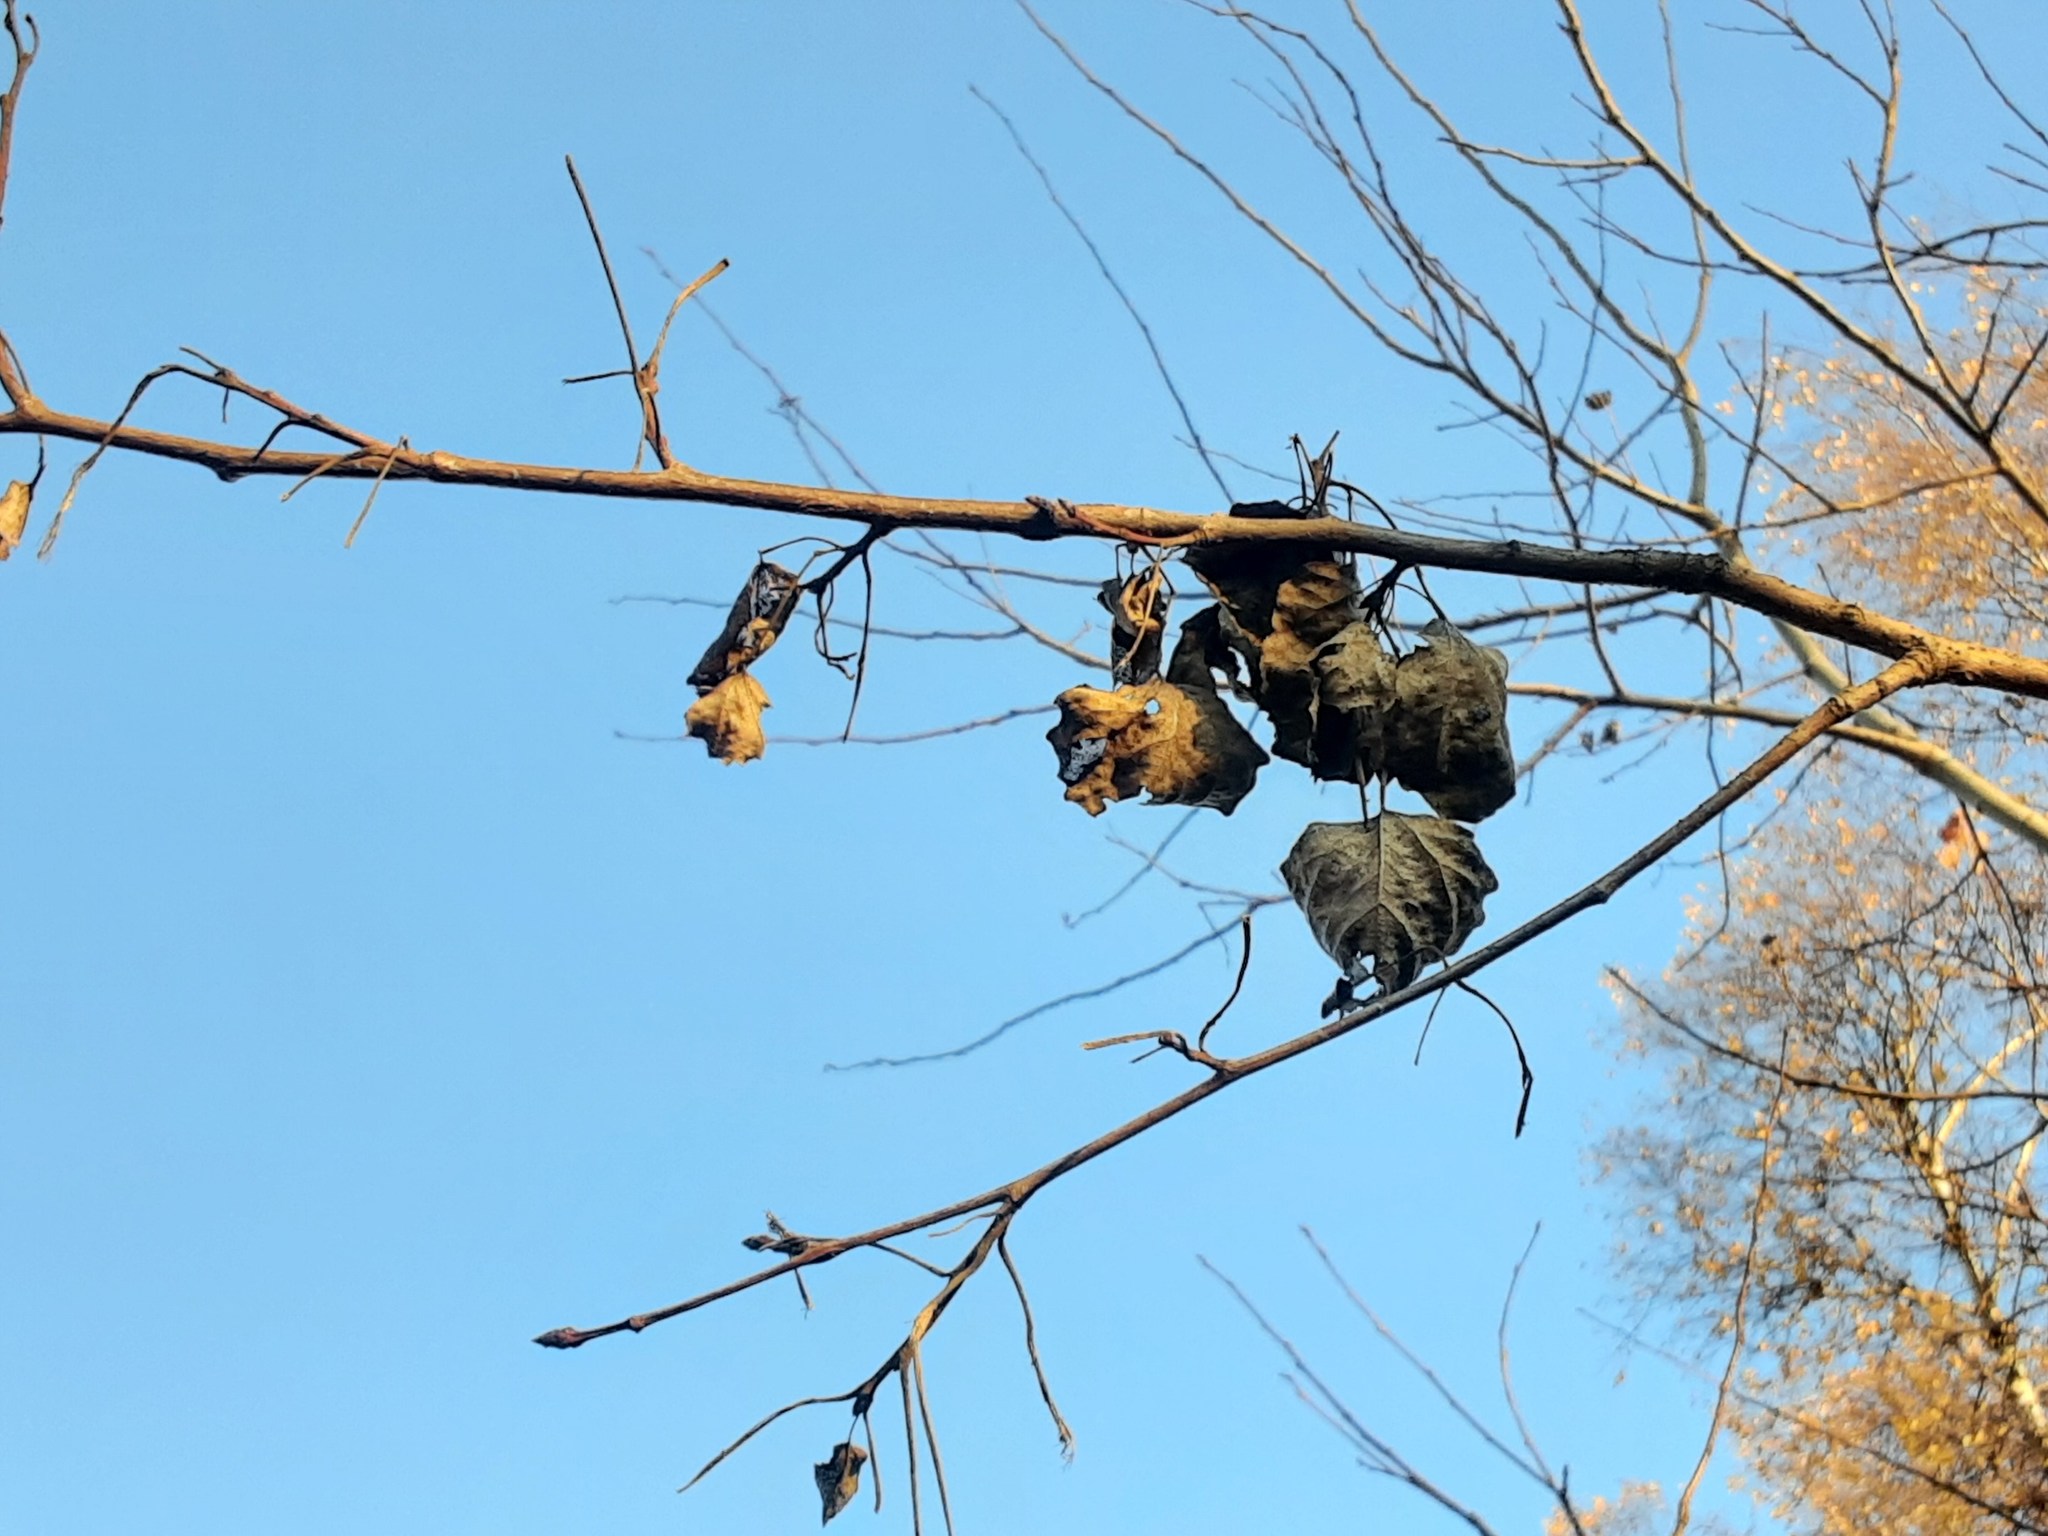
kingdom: Plantae
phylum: Tracheophyta
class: Magnoliopsida
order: Malpighiales
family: Salicaceae
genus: Populus
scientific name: Populus tremula
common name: European aspen
